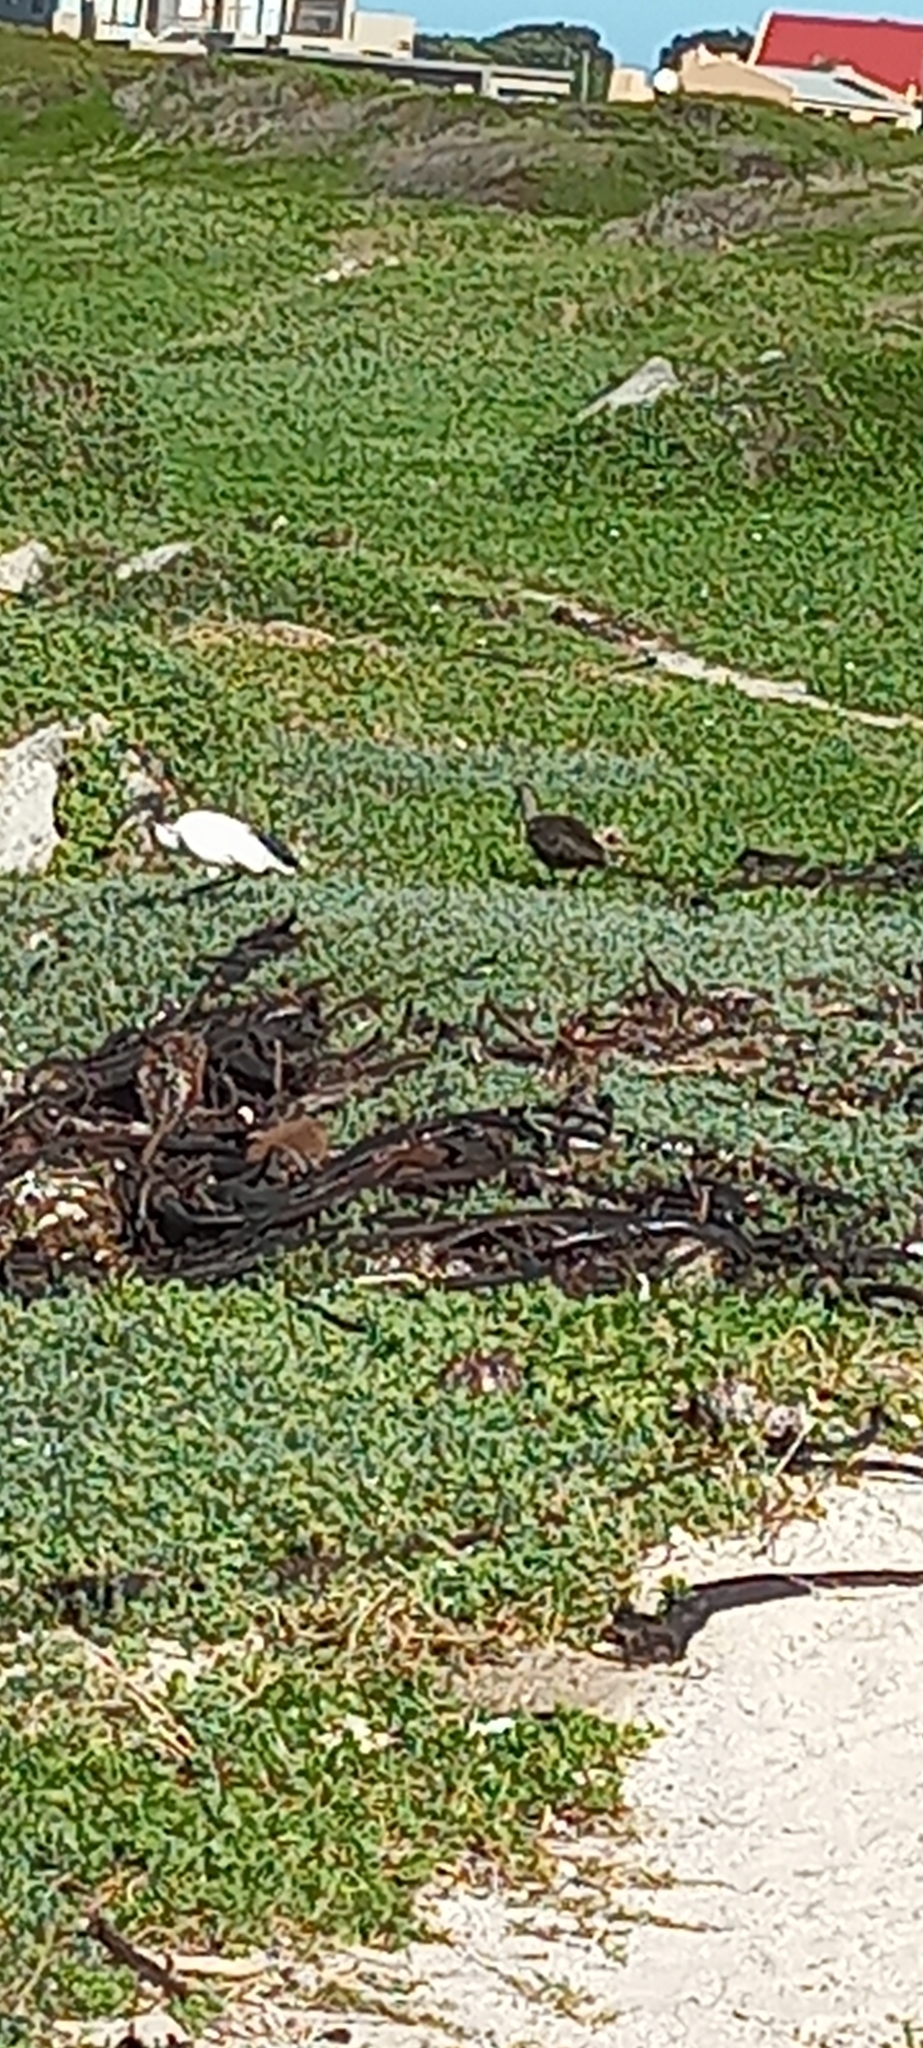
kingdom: Animalia
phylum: Chordata
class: Aves
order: Pelecaniformes
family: Threskiornithidae
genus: Bostrychia
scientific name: Bostrychia hagedash
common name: Hadada ibis
